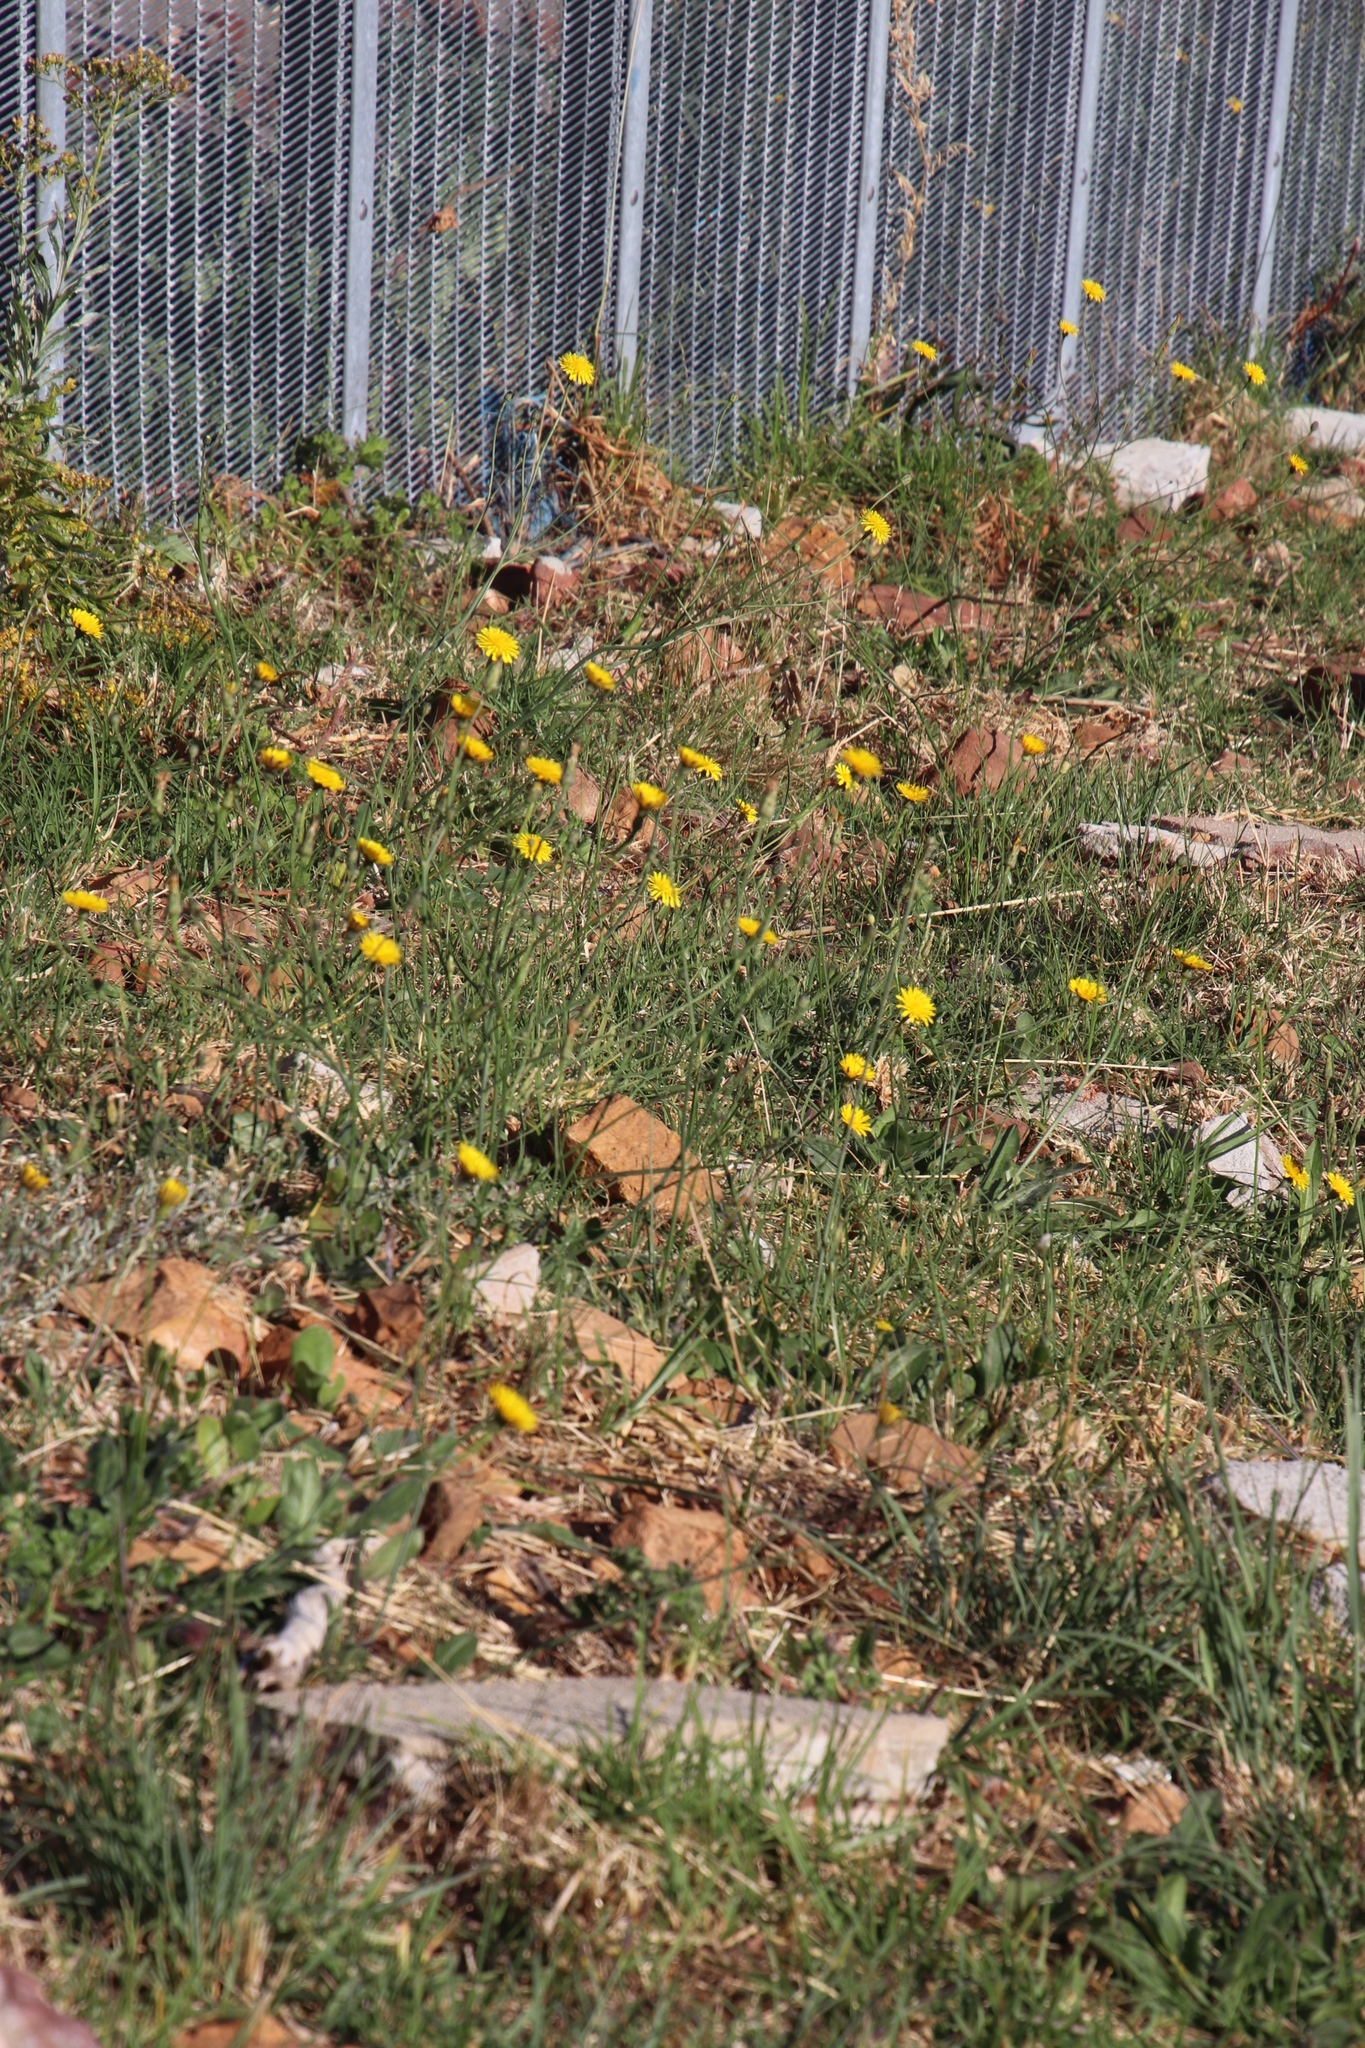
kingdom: Plantae
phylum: Tracheophyta
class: Magnoliopsida
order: Asterales
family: Asteraceae
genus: Hypochaeris
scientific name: Hypochaeris radicata
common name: Flatweed
